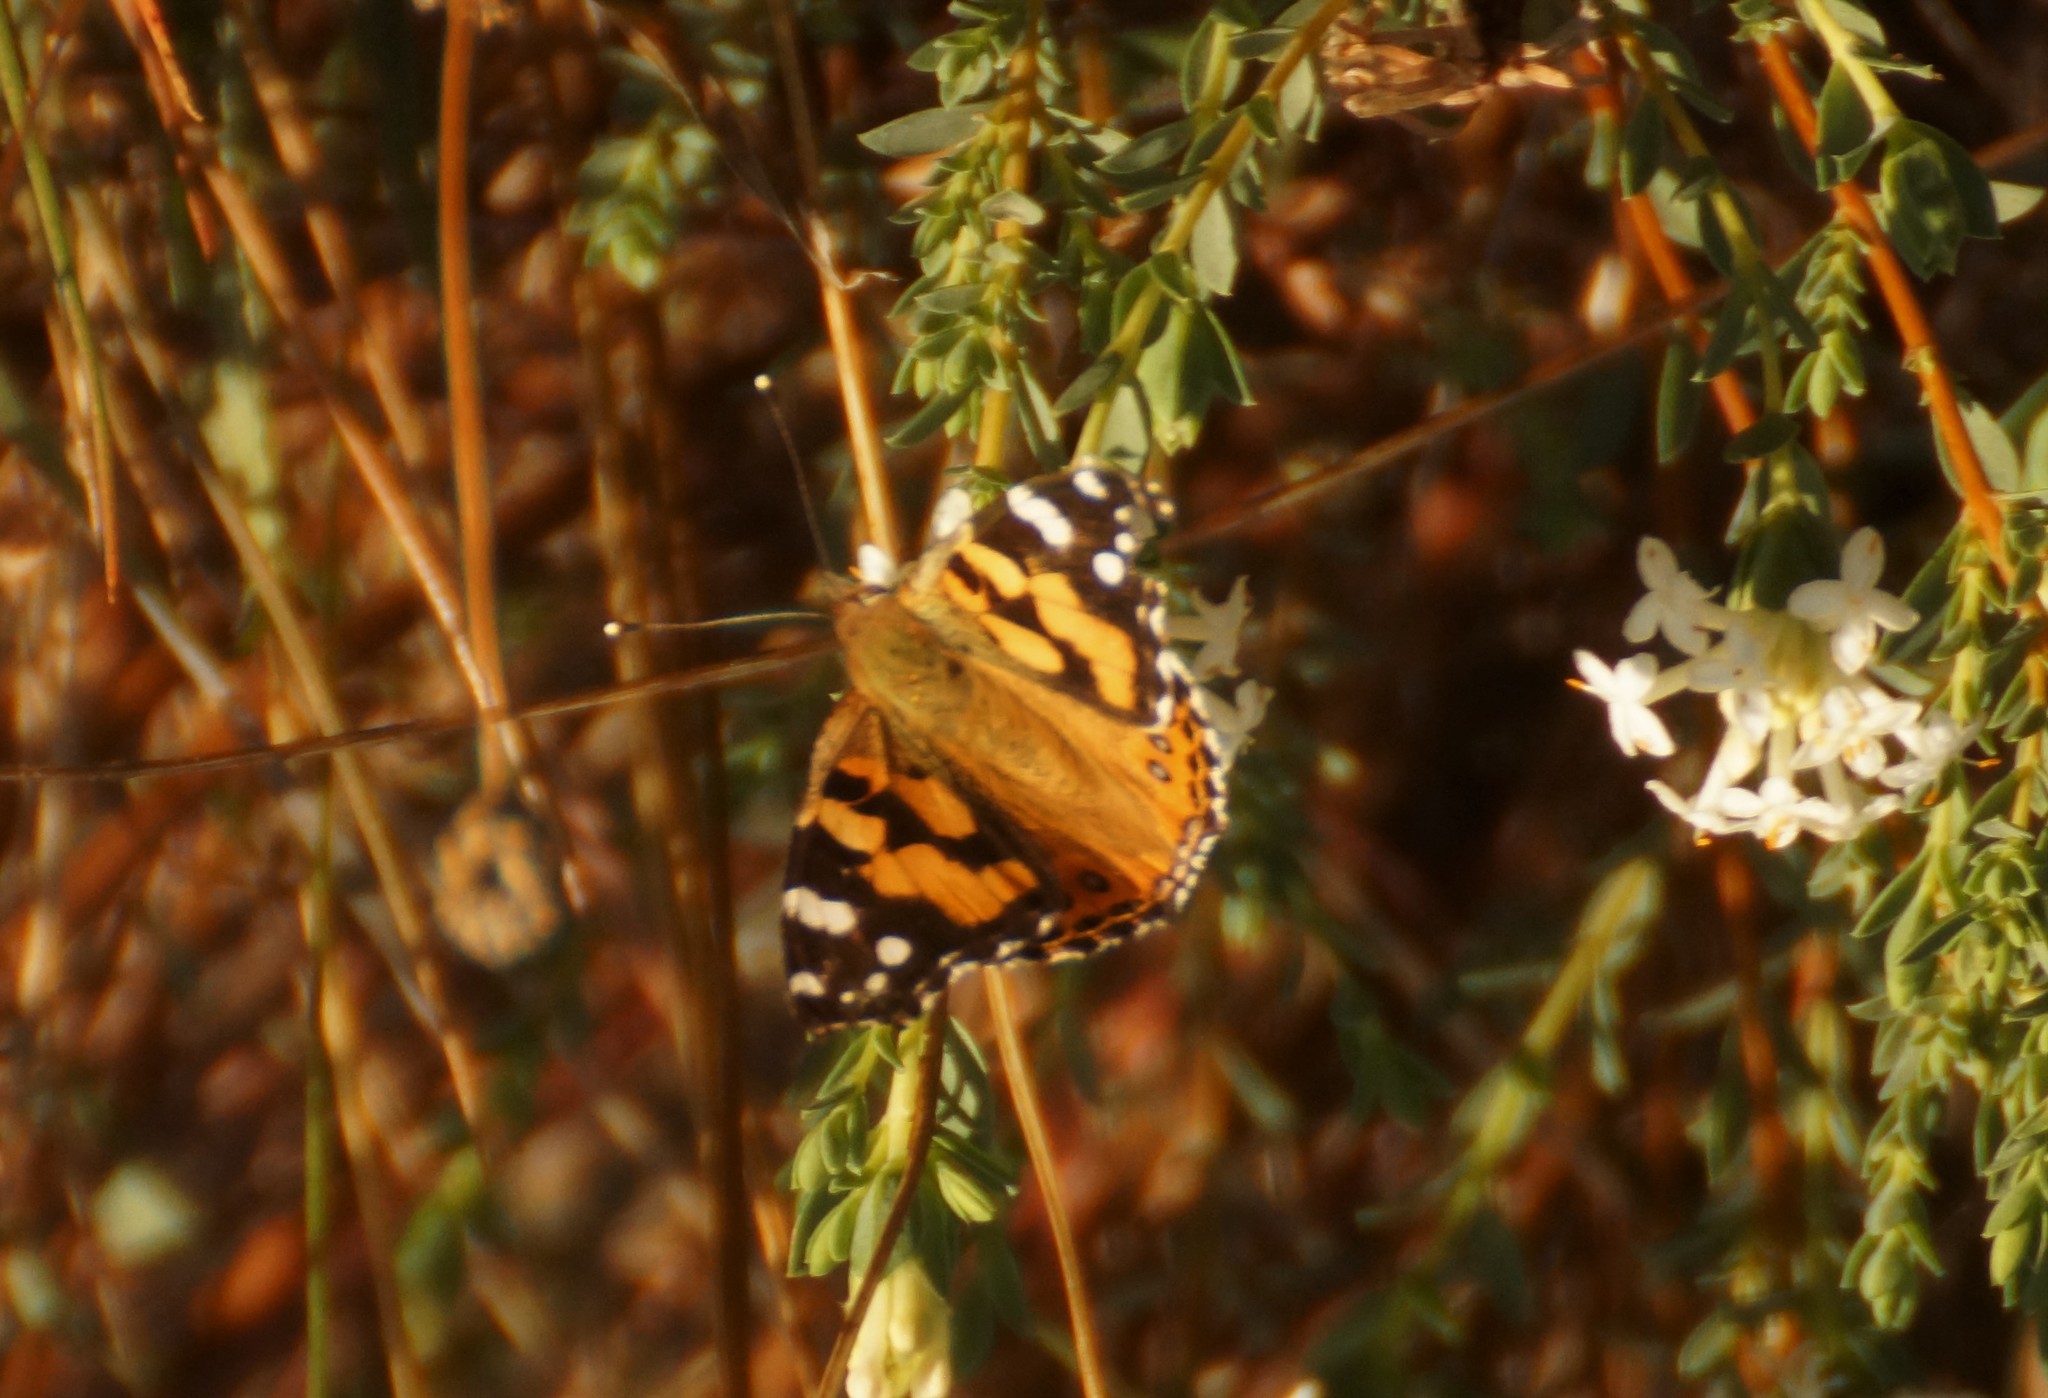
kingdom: Animalia
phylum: Arthropoda
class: Insecta
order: Lepidoptera
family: Nymphalidae
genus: Vanessa
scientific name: Vanessa kershawi
